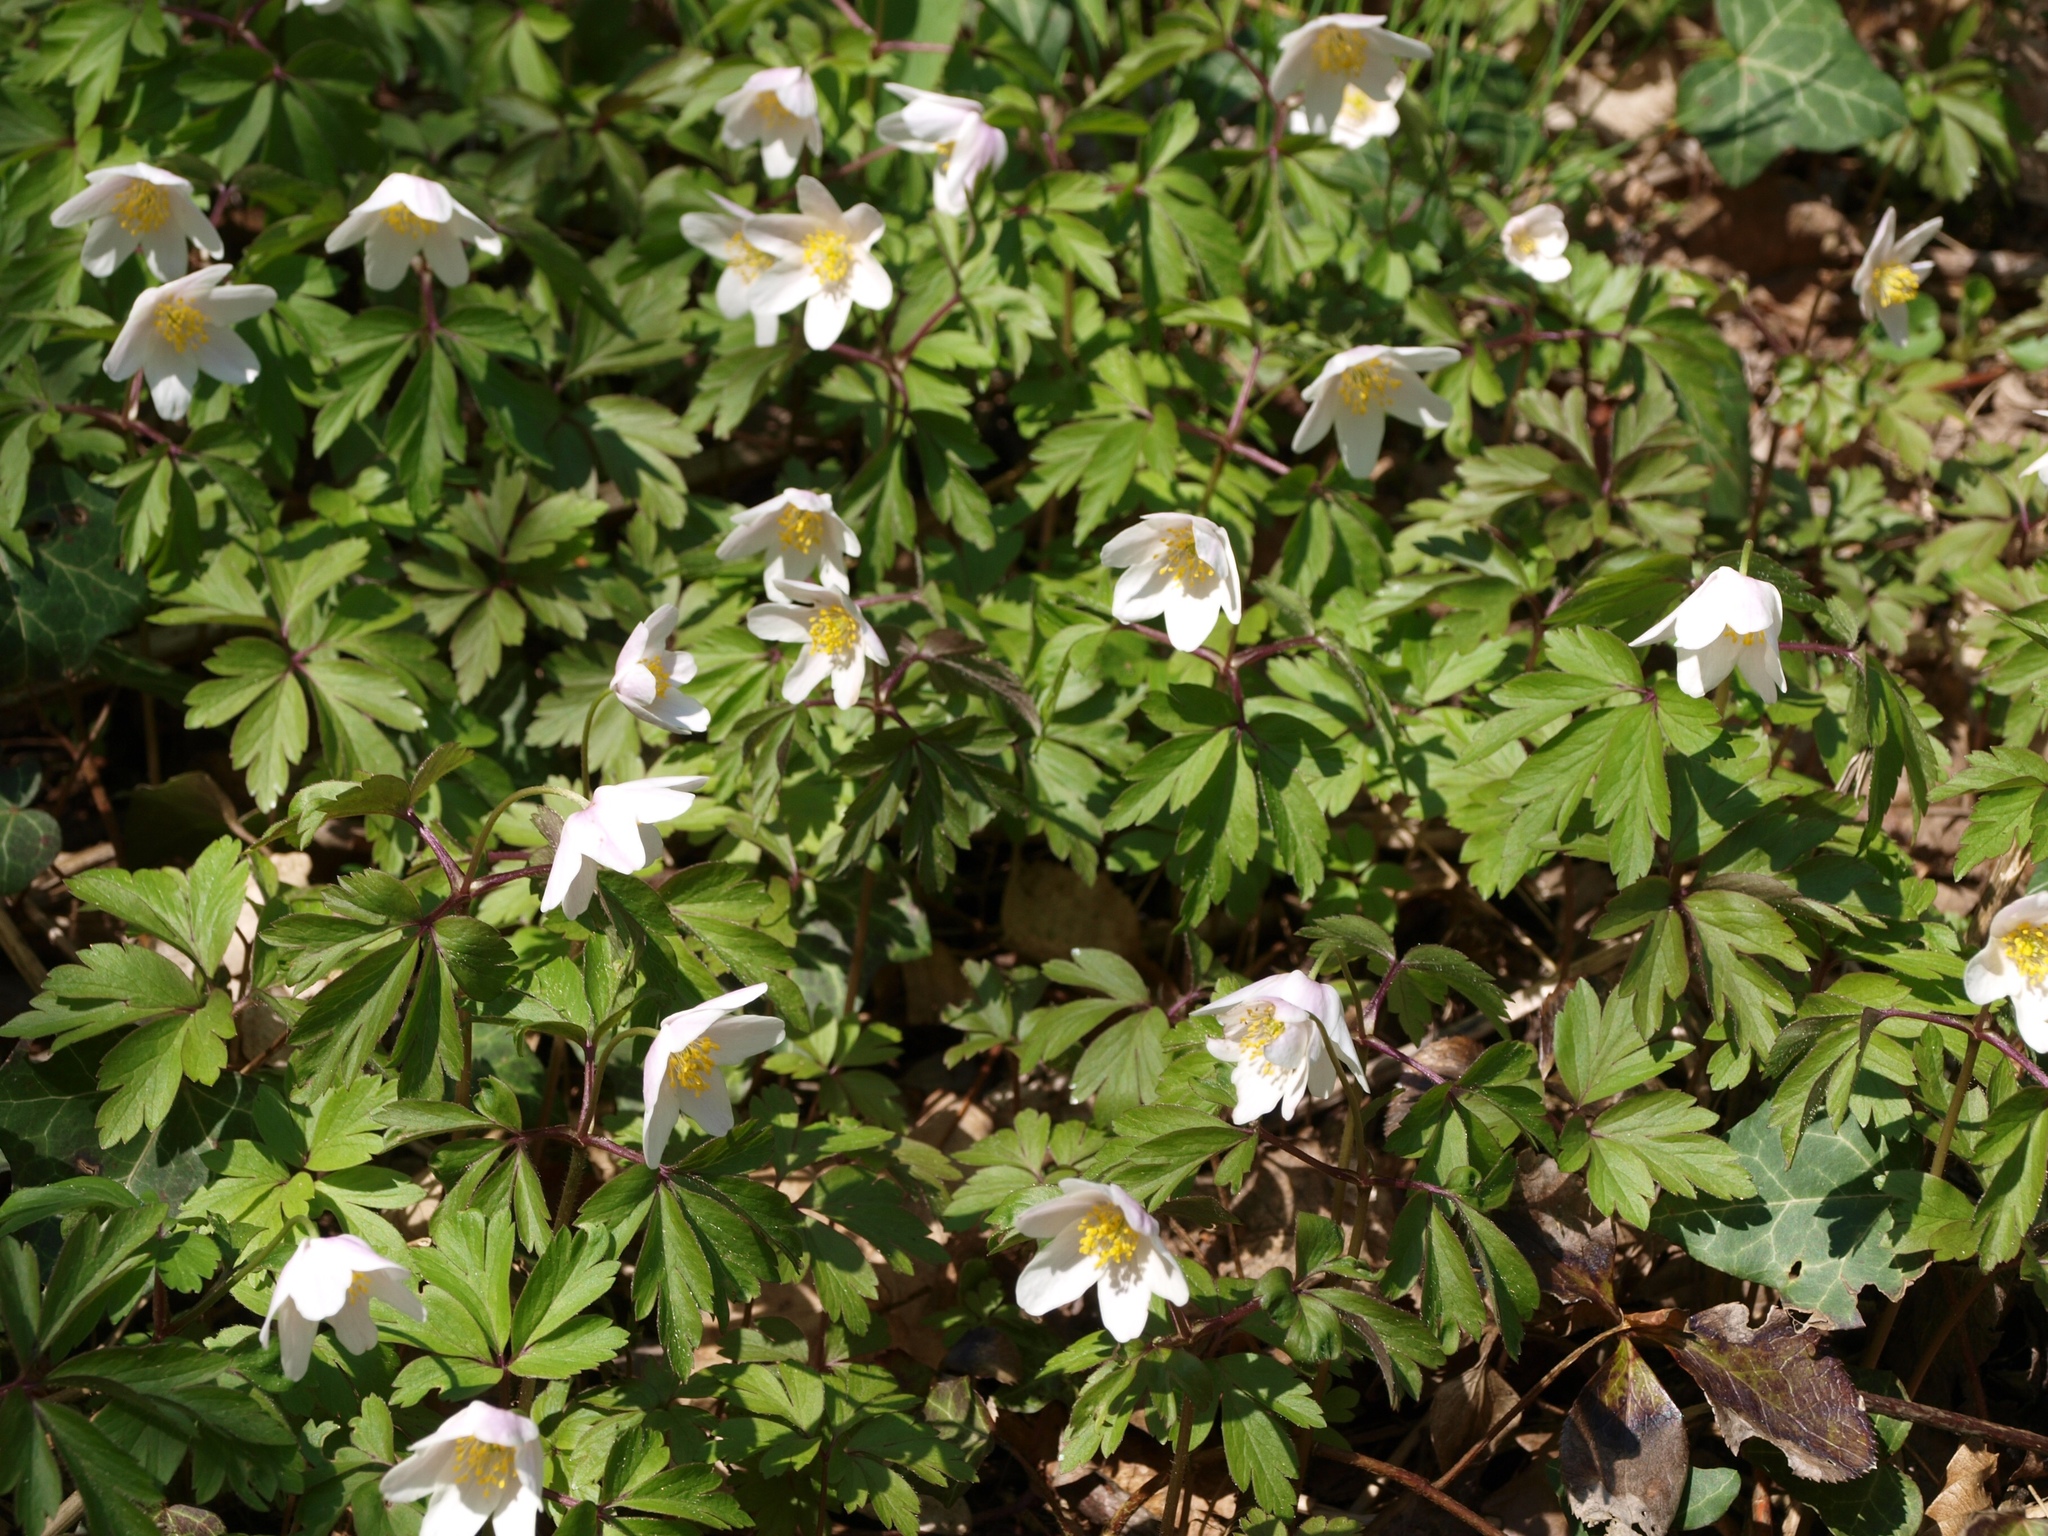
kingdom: Plantae
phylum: Tracheophyta
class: Magnoliopsida
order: Ranunculales
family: Ranunculaceae
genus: Anemone
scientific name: Anemone nemorosa
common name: Wood anemone
